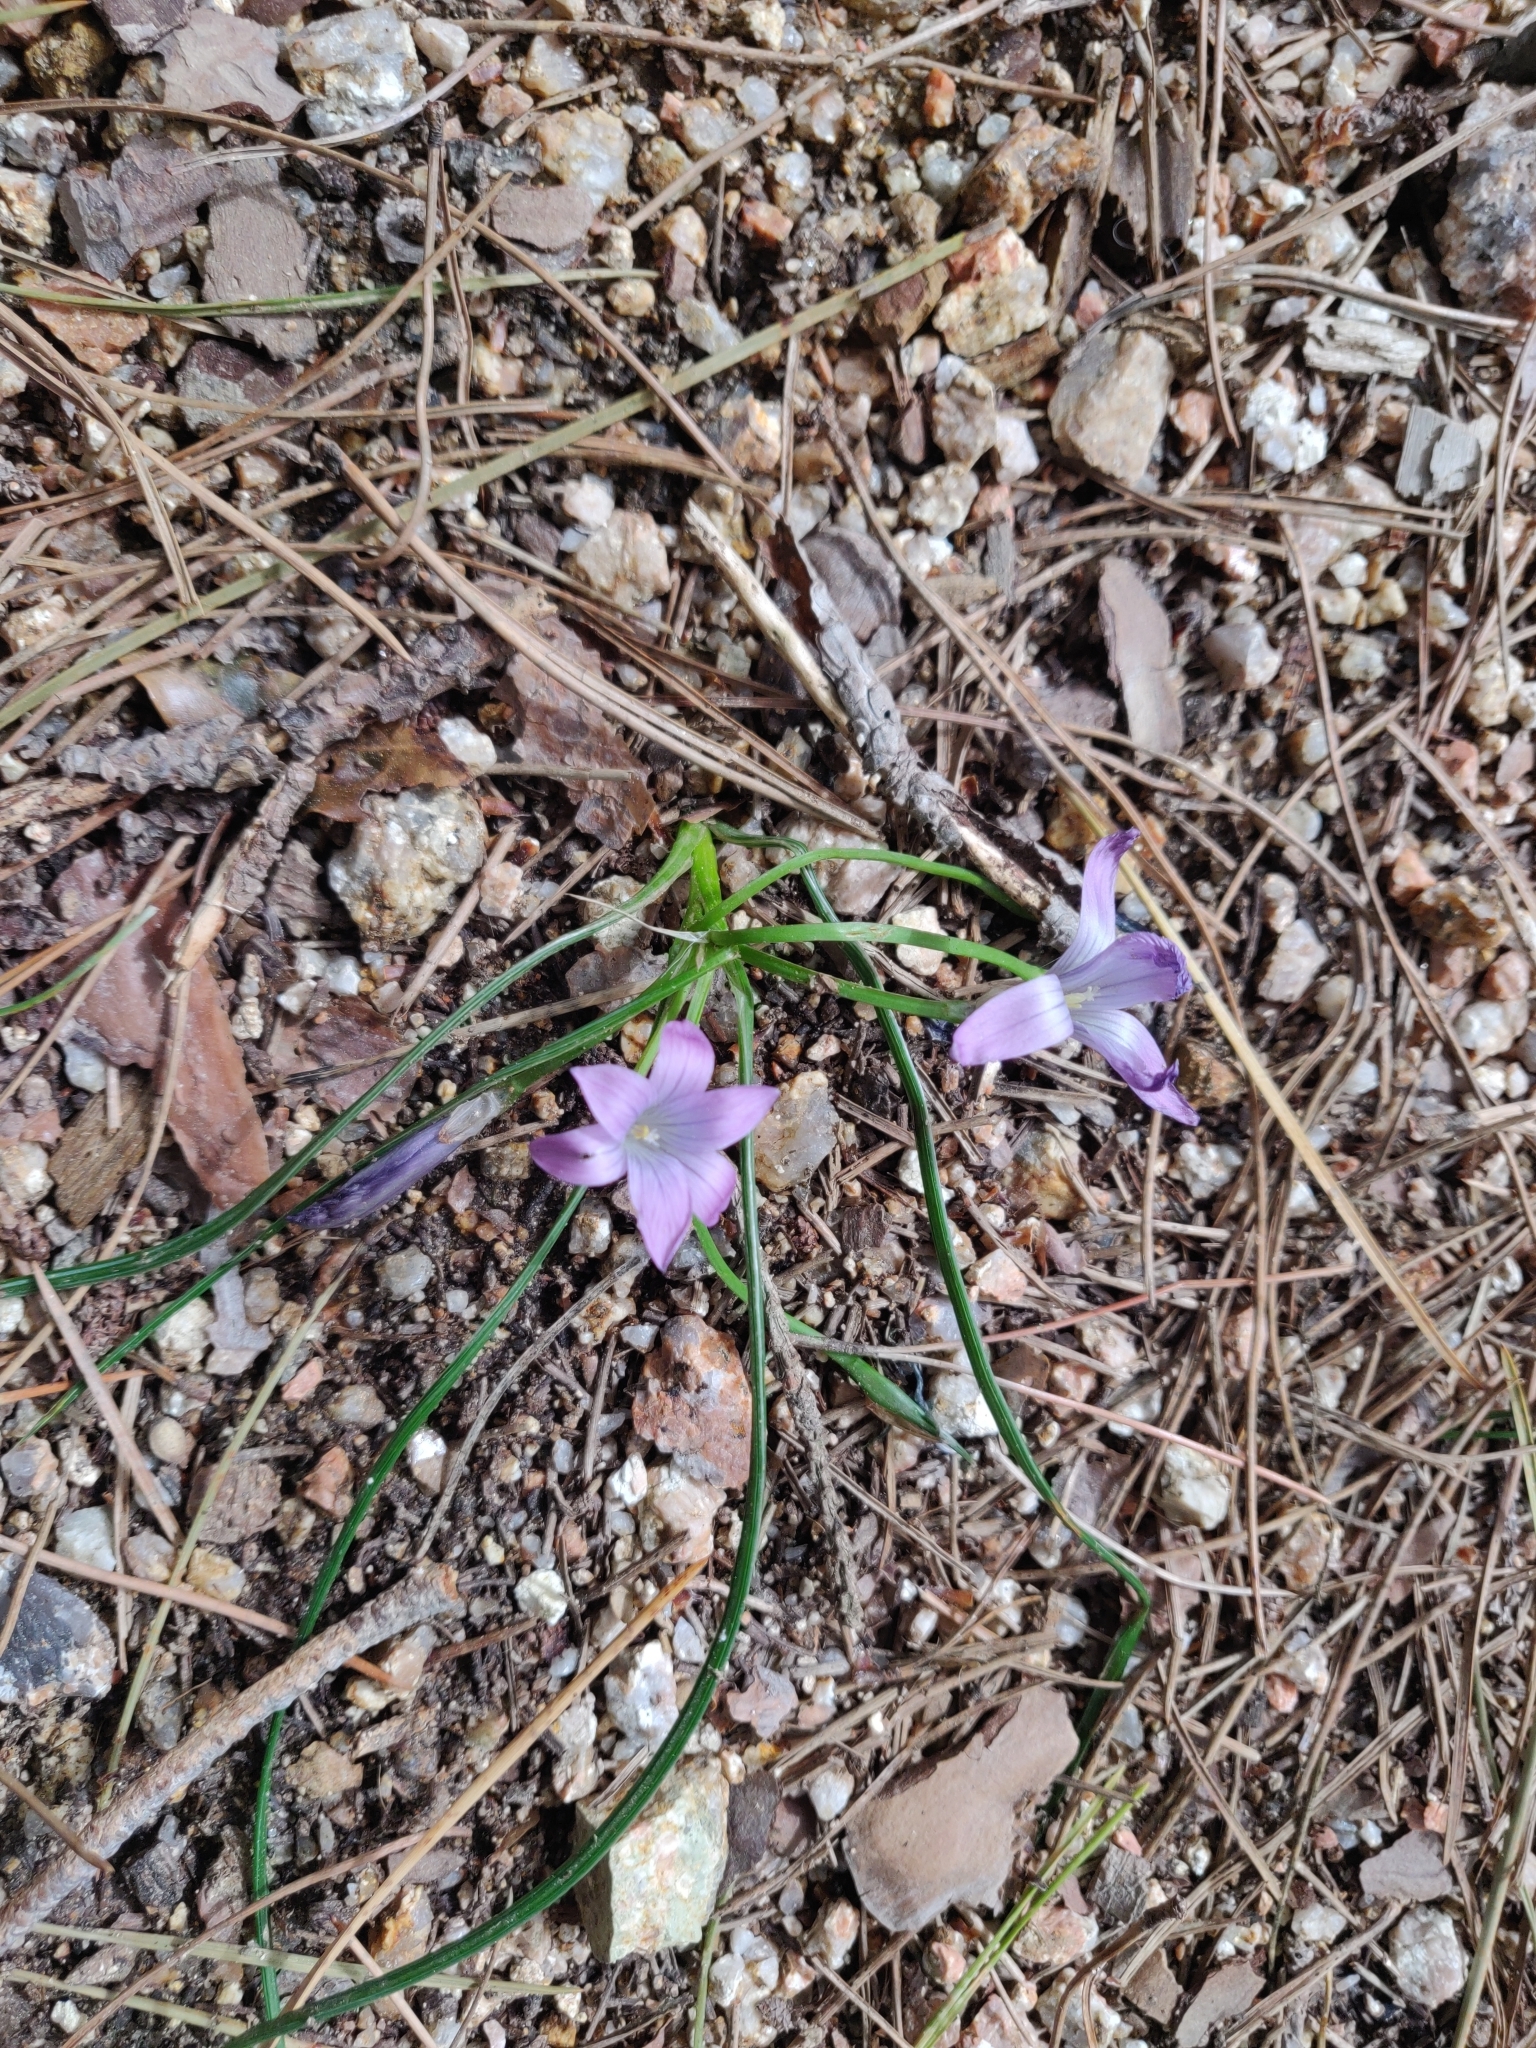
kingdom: Plantae
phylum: Tracheophyta
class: Liliopsida
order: Asparagales
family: Iridaceae
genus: Romulea
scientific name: Romulea ligustica
